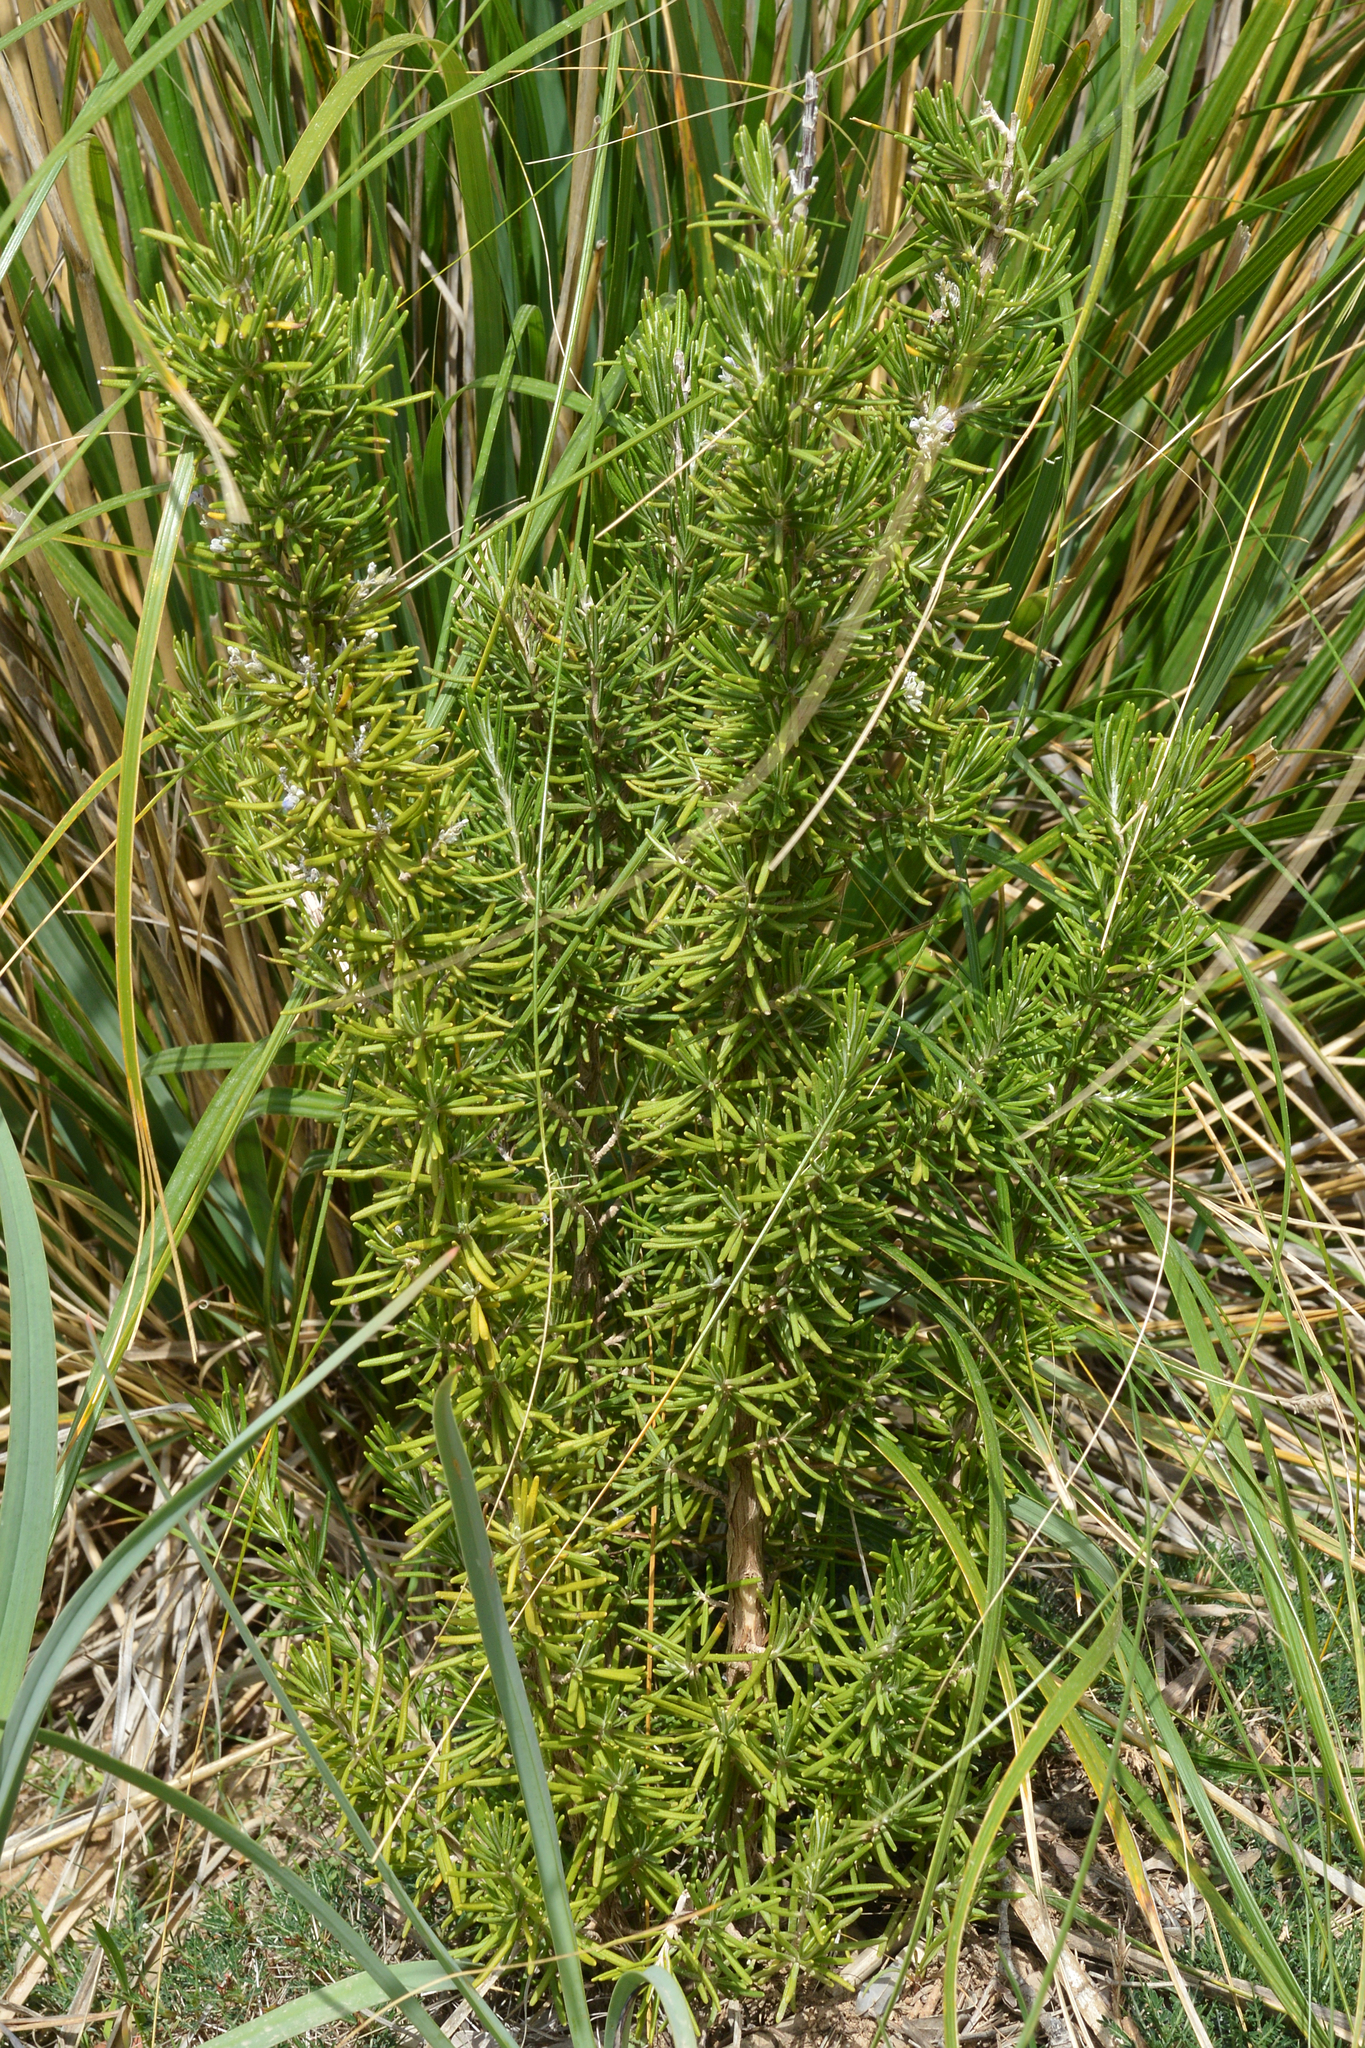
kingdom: Plantae
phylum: Tracheophyta
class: Magnoliopsida
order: Lamiales
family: Lamiaceae
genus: Salvia
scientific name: Salvia rosmarinus
